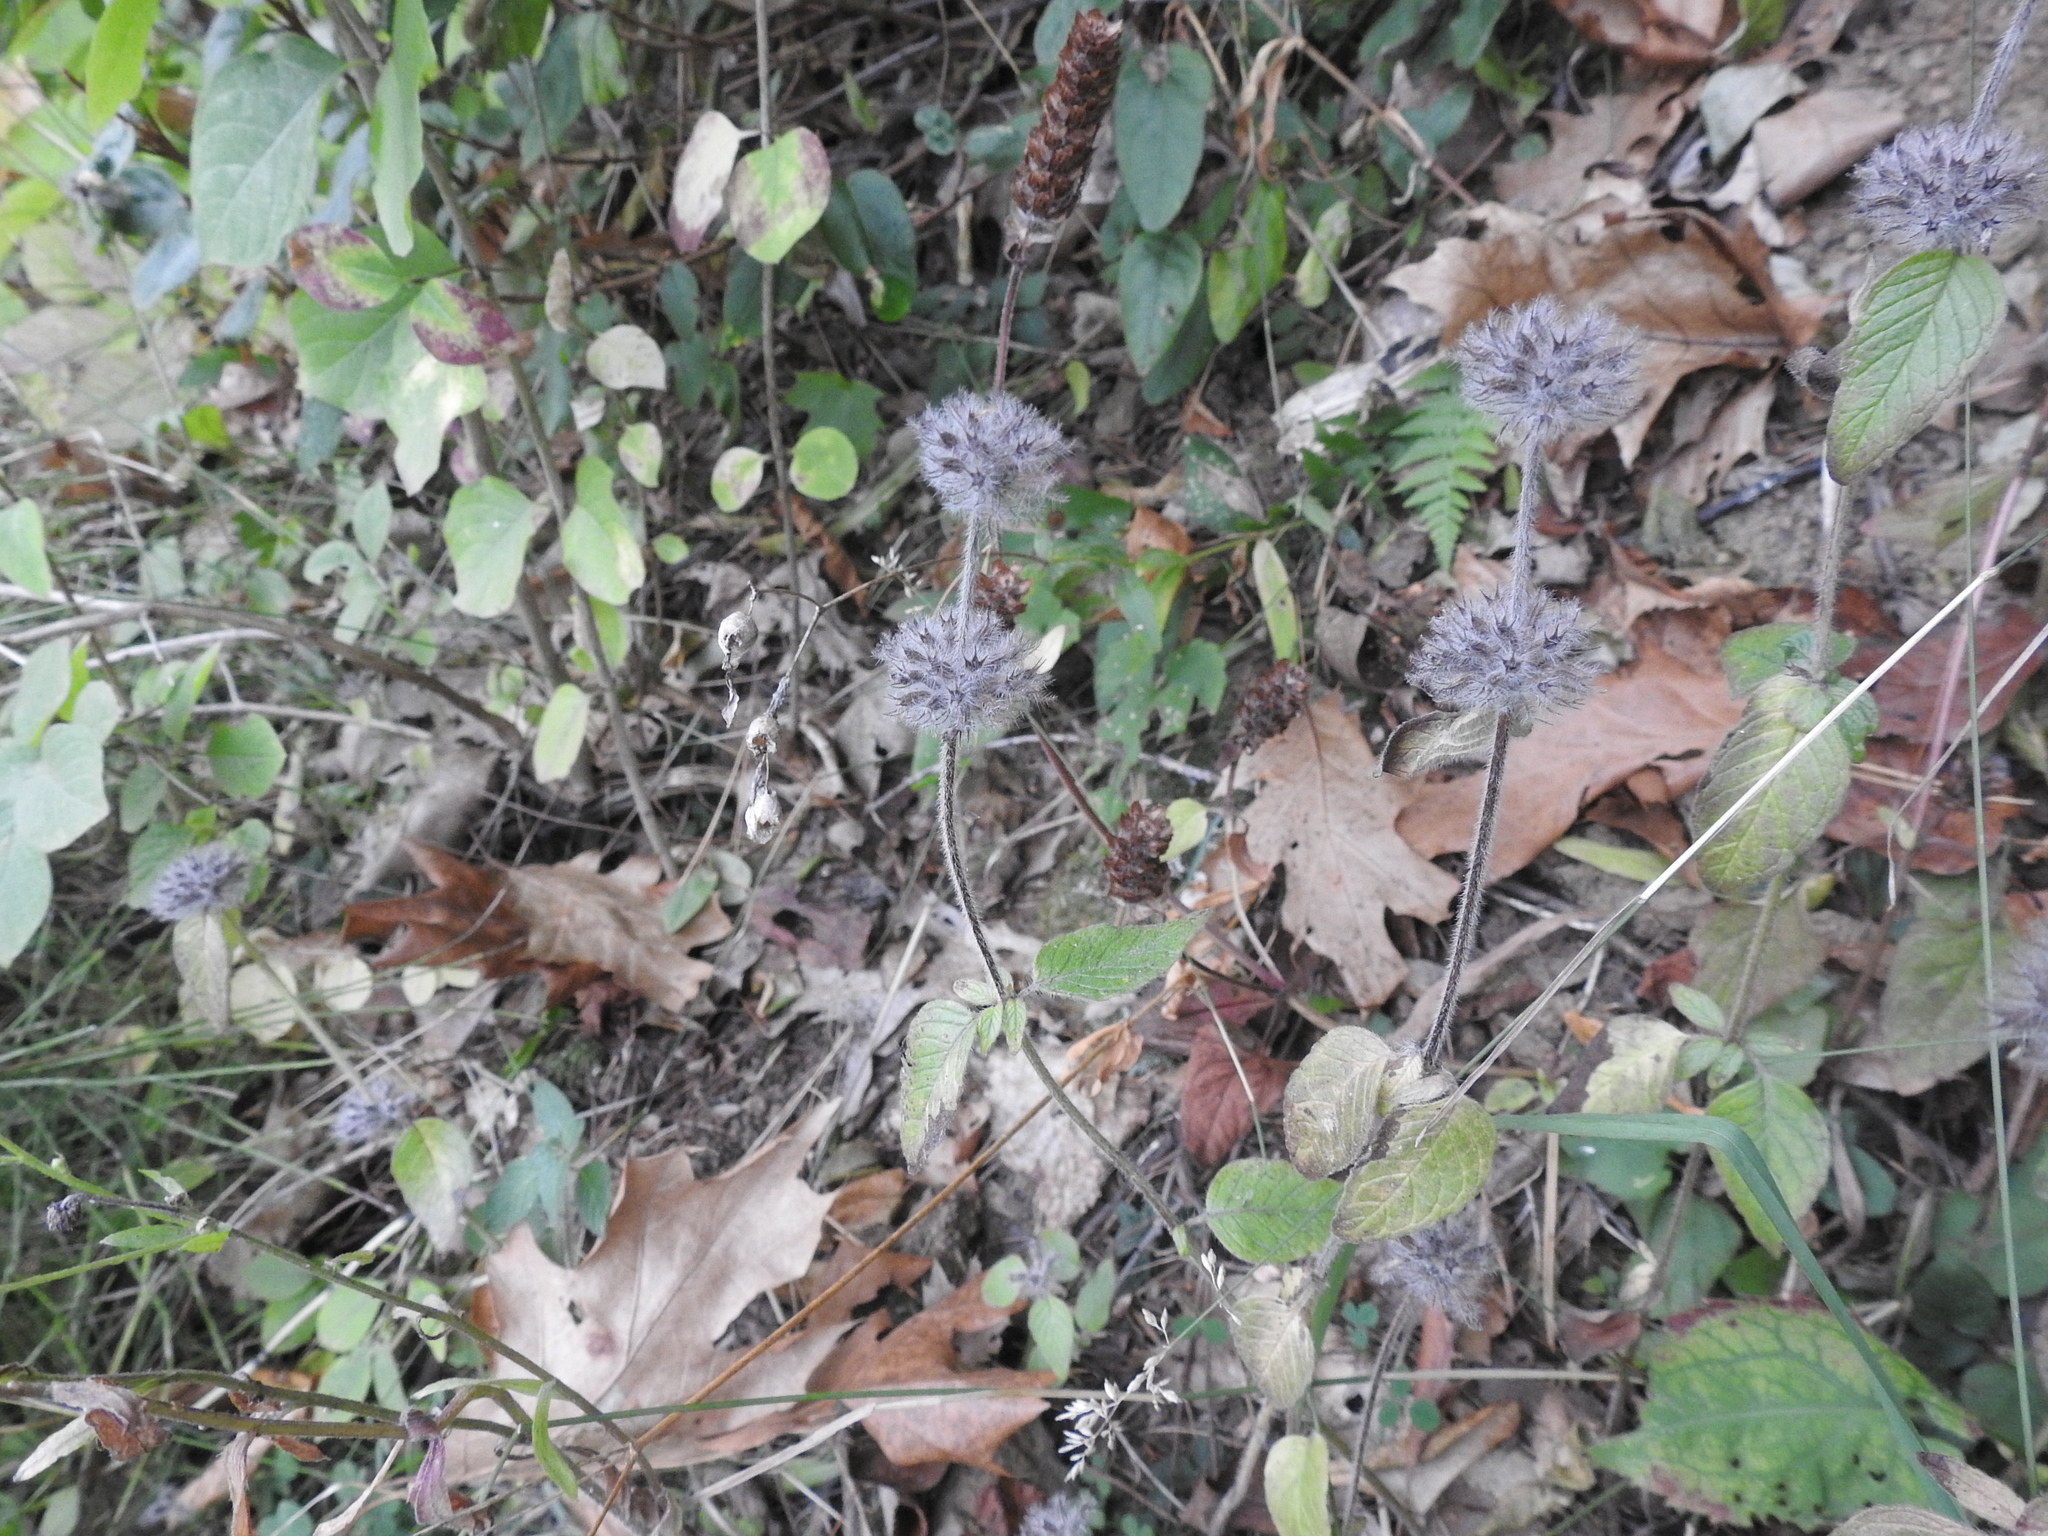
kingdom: Plantae
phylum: Tracheophyta
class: Magnoliopsida
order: Lamiales
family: Lamiaceae
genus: Clinopodium
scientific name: Clinopodium vulgare
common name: Wild basil
